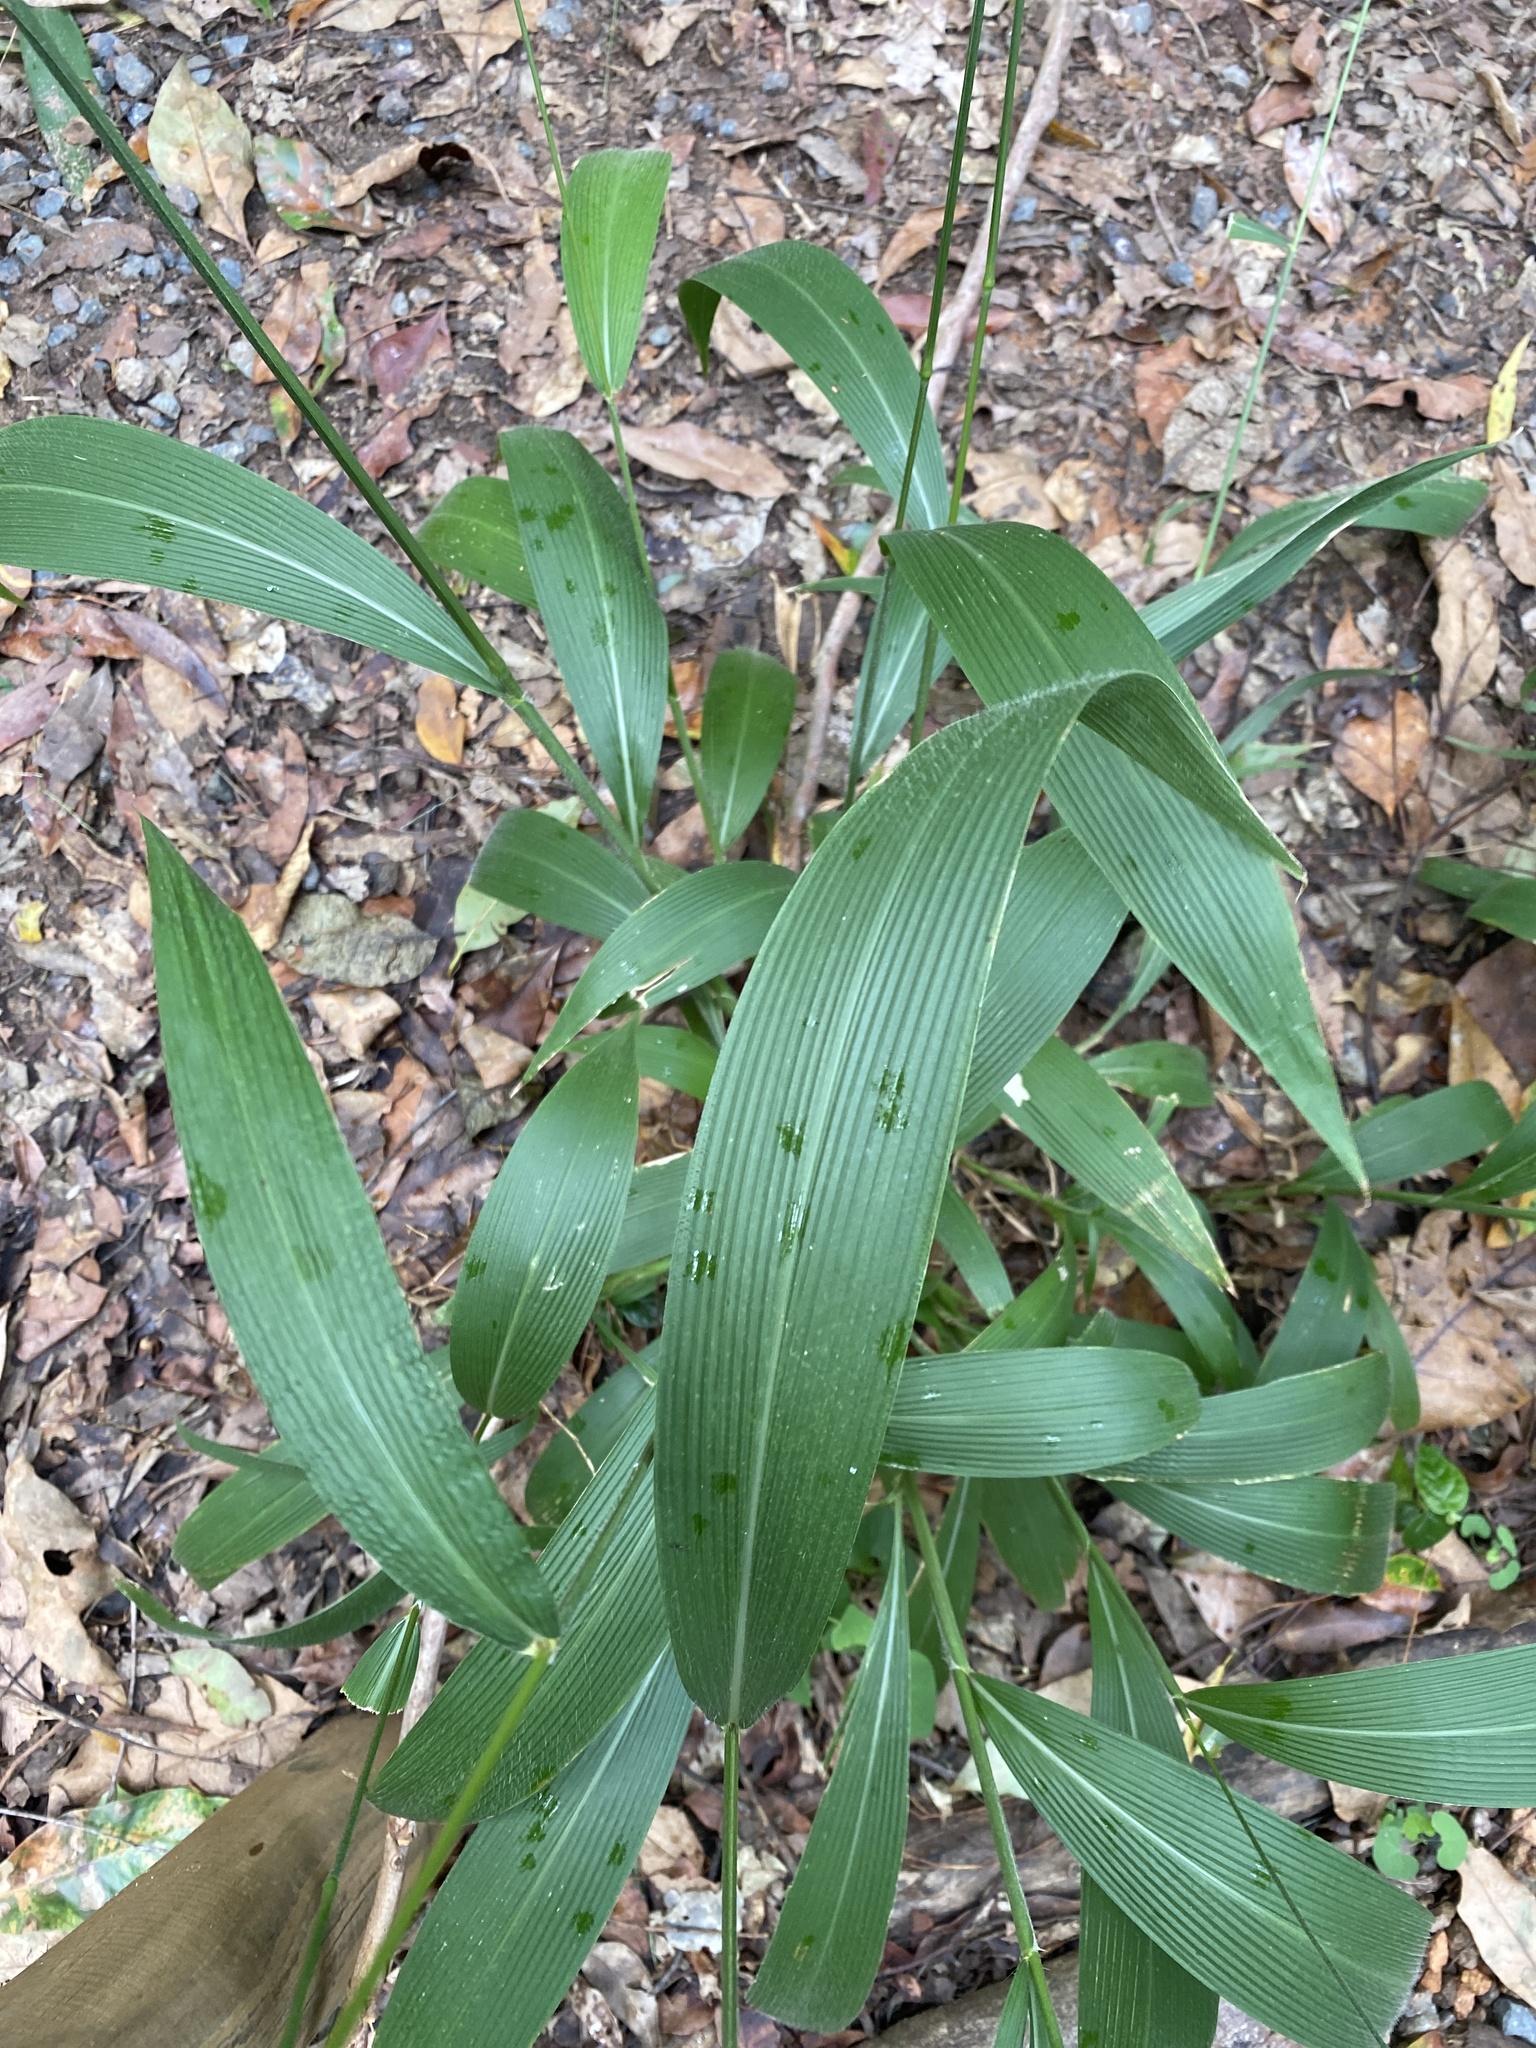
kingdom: Plantae
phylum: Tracheophyta
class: Liliopsida
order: Poales
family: Poaceae
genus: Setaria
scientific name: Setaria palmifolia
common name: Broadleaved bristlegrass
